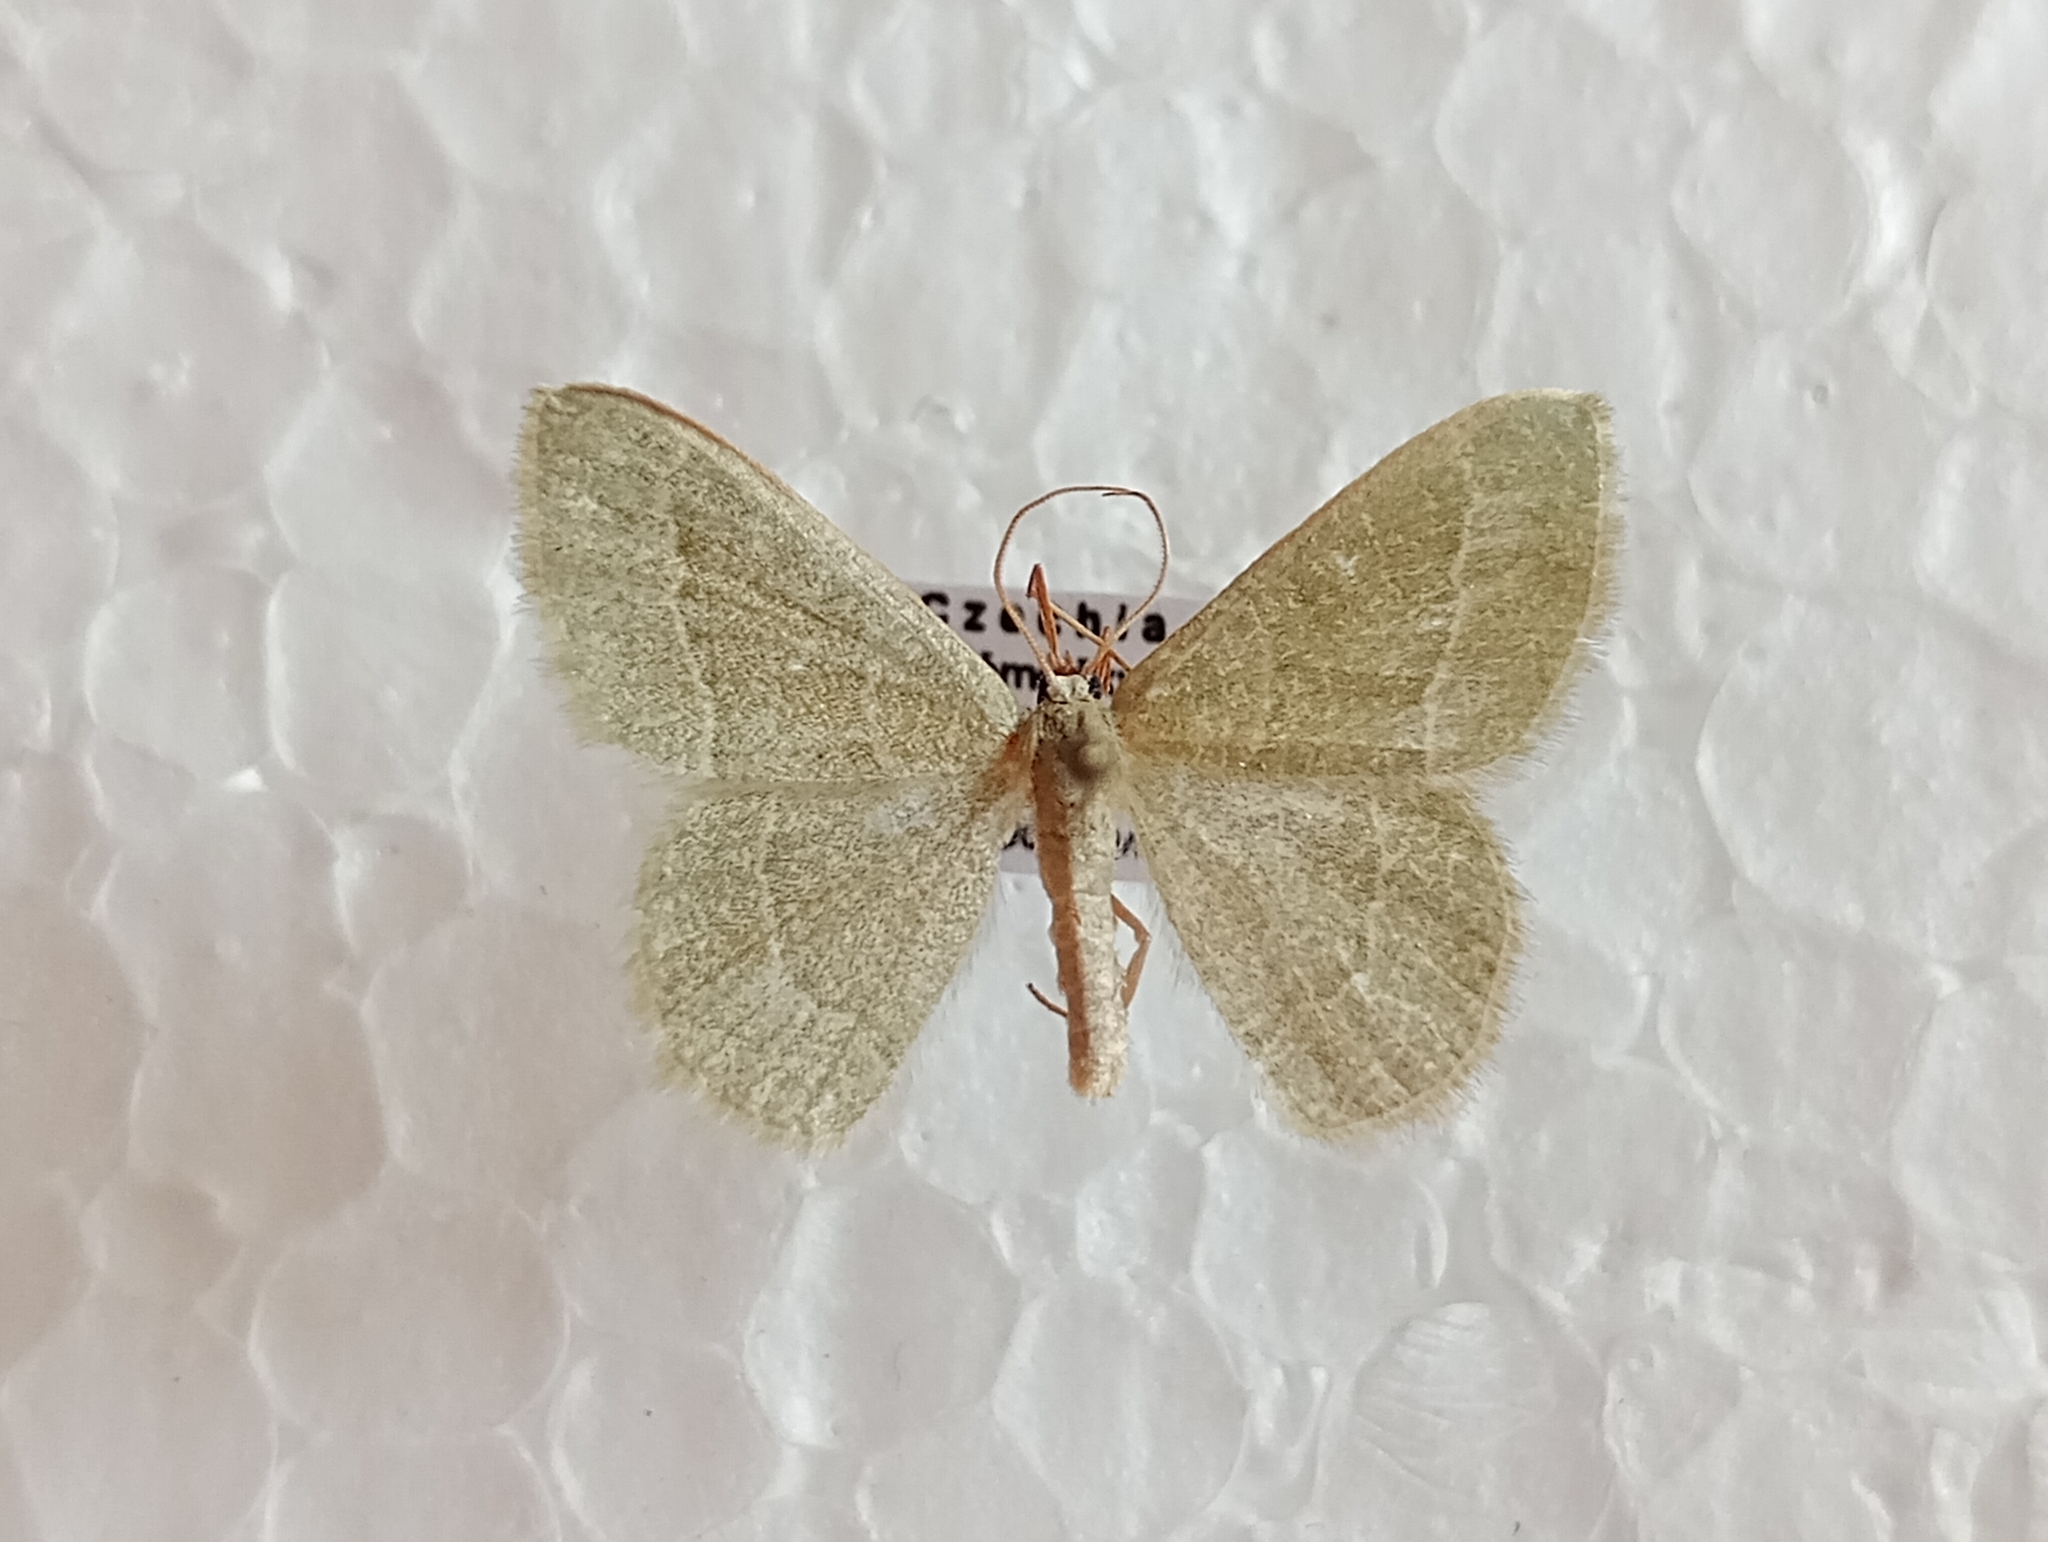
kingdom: Animalia
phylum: Arthropoda
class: Insecta
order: Lepidoptera
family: Geometridae
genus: Chlorissa
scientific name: Chlorissa etruscaria
